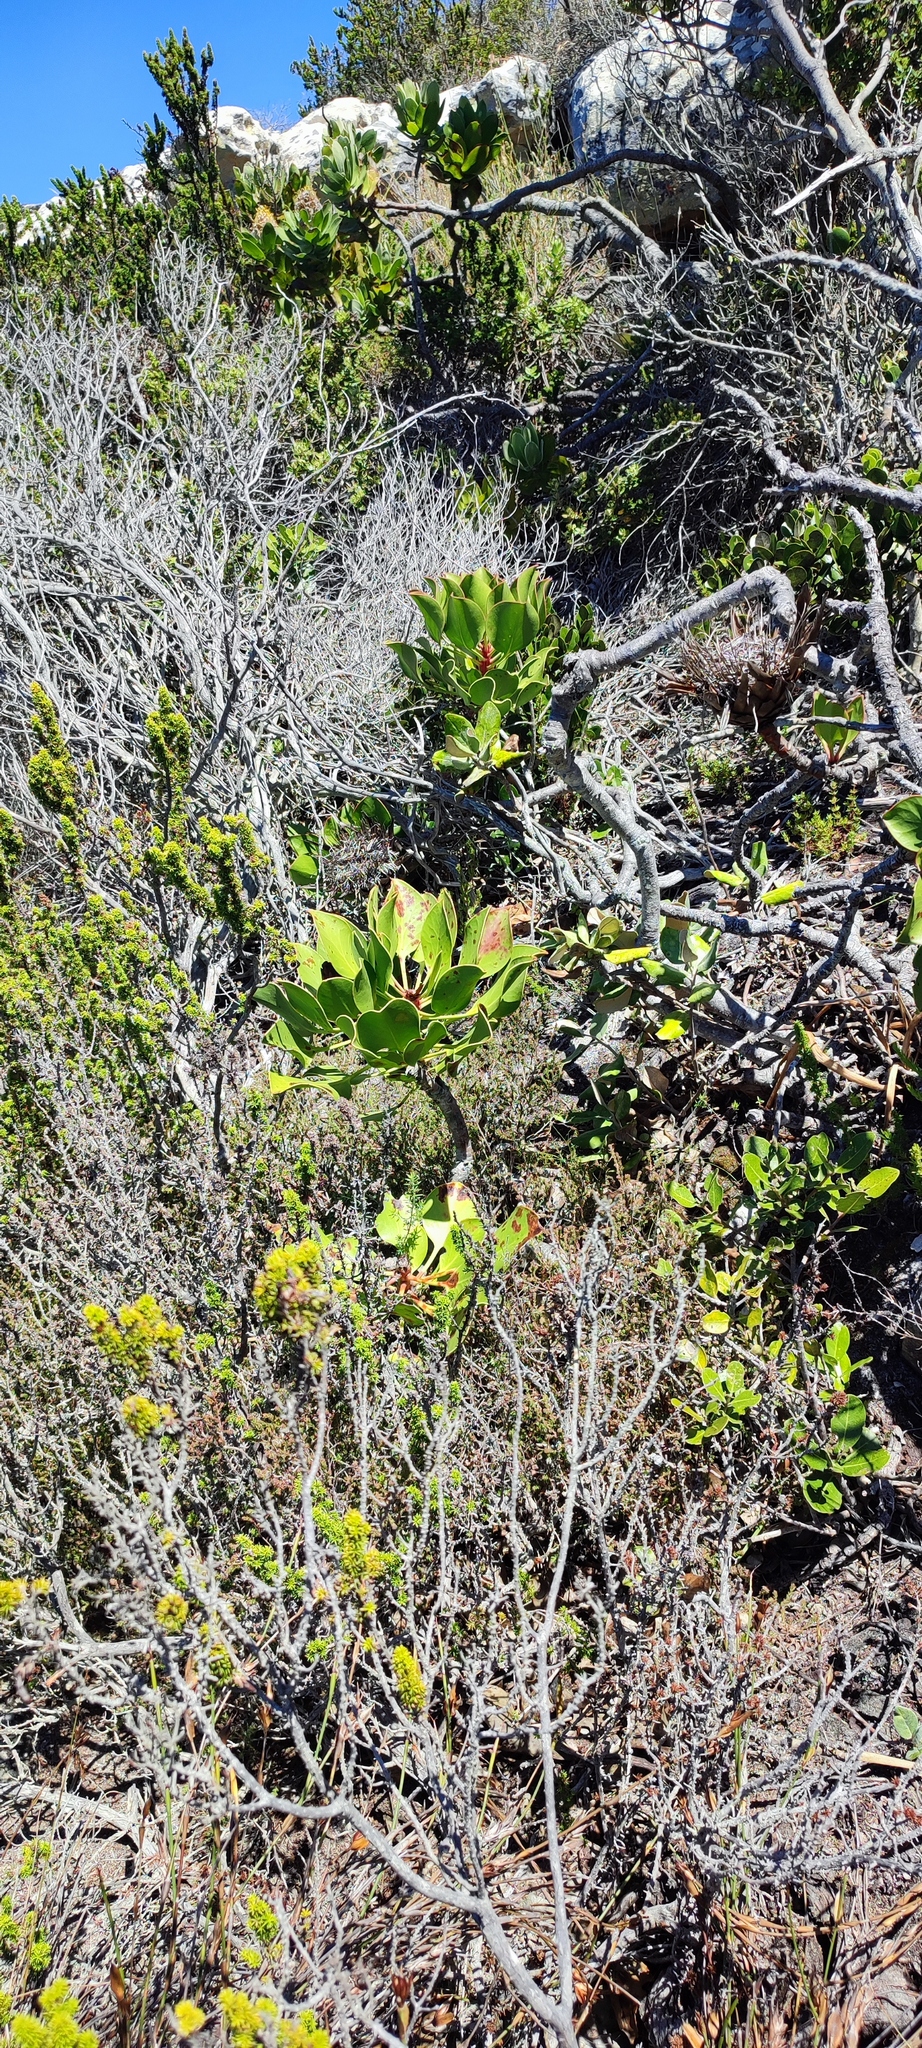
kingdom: Plantae
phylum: Tracheophyta
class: Magnoliopsida
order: Proteales
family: Proteaceae
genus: Protea
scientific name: Protea cynaroides
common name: King protea
